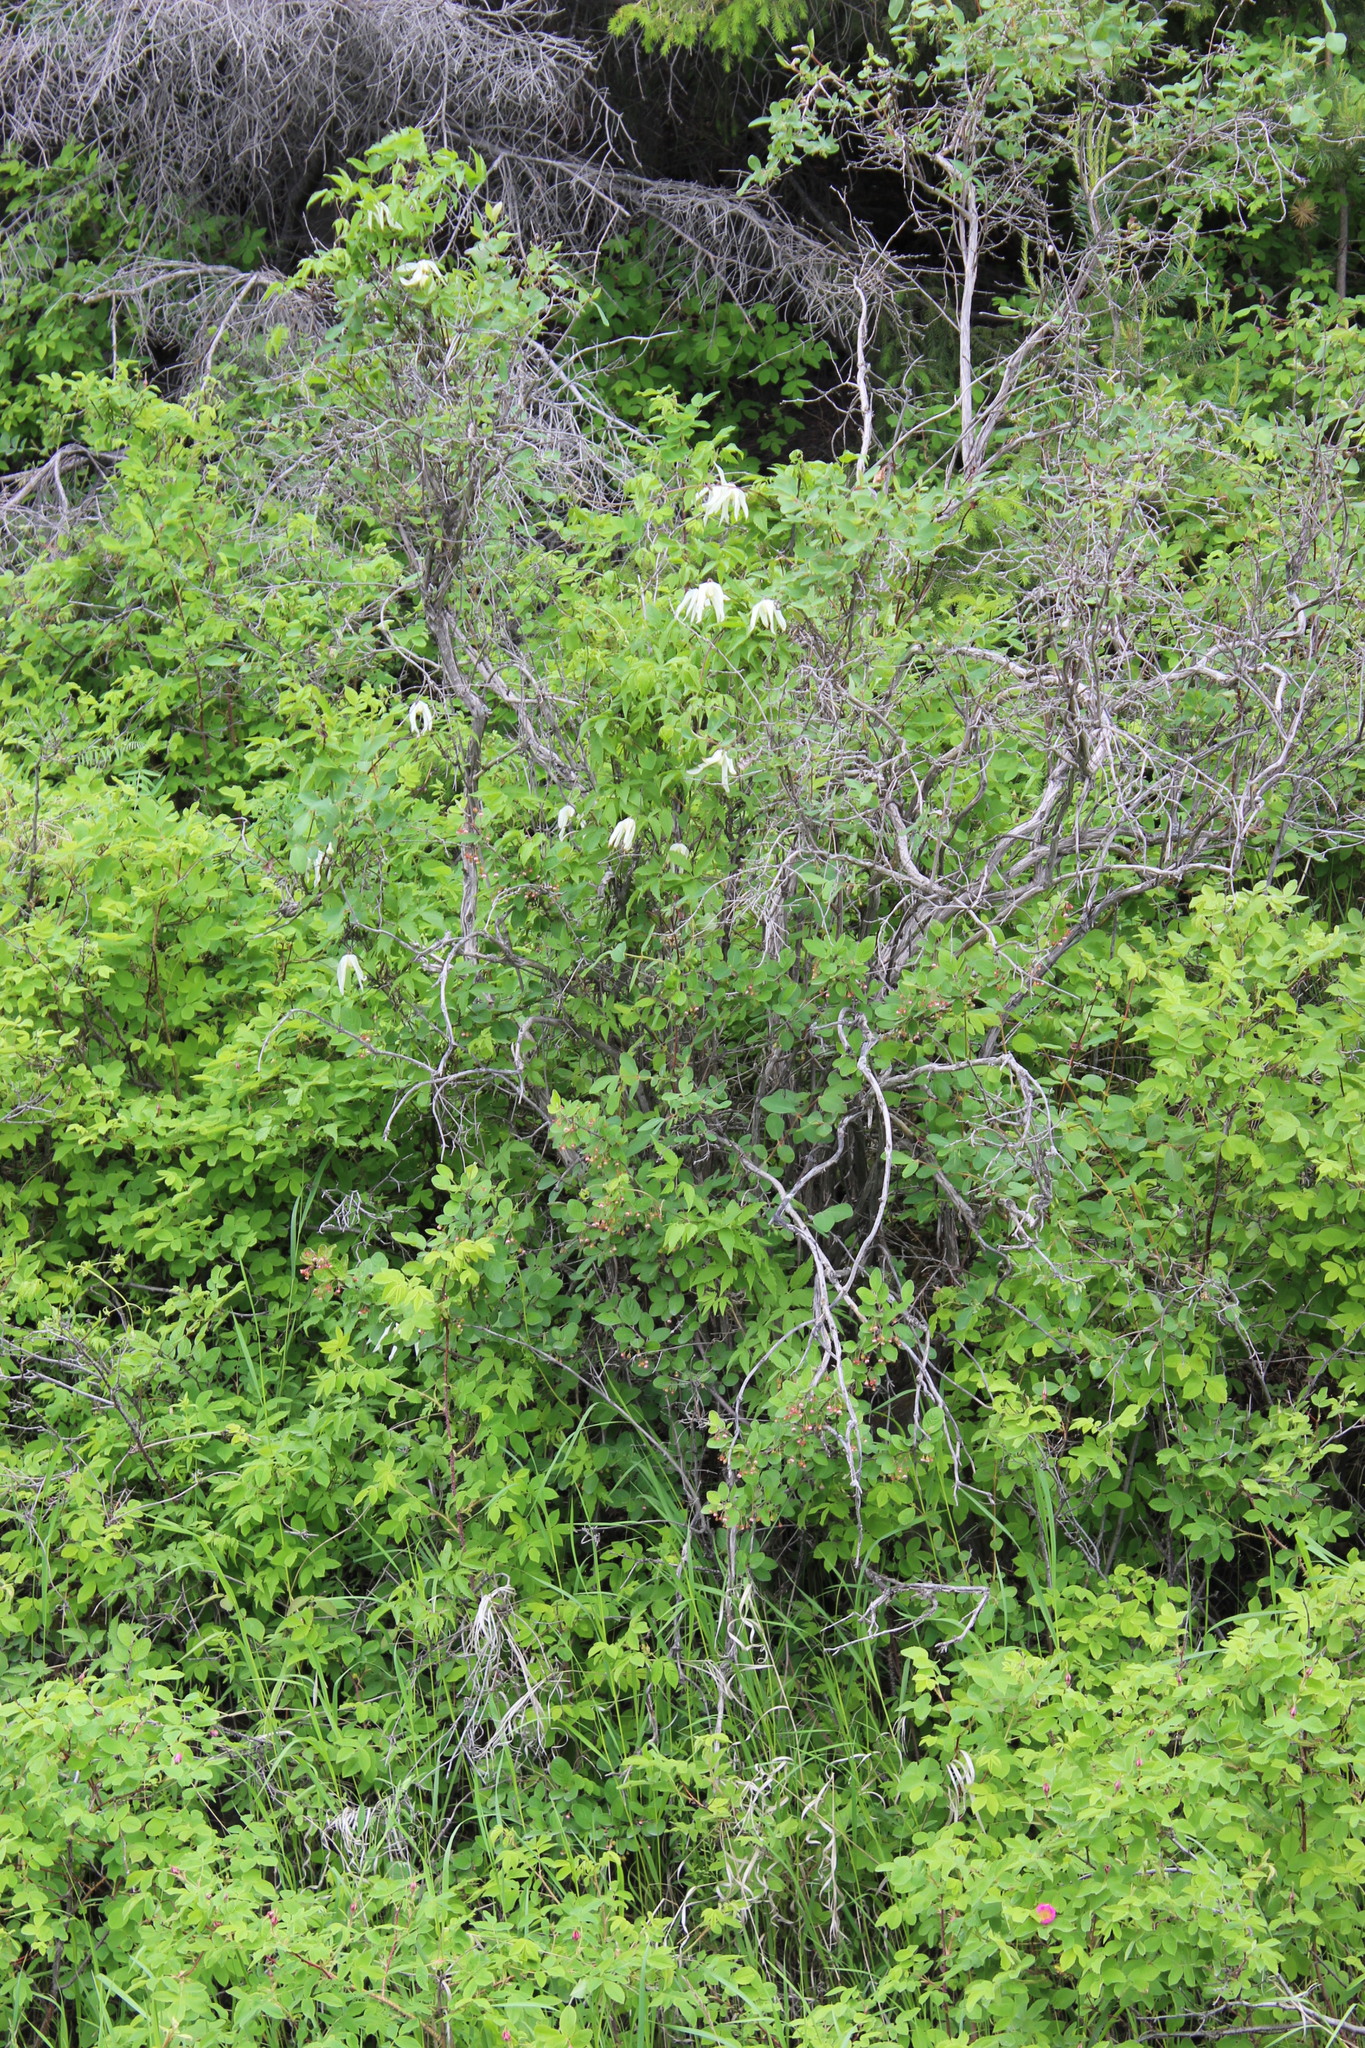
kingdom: Plantae
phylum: Tracheophyta
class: Magnoliopsida
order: Ranunculales
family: Ranunculaceae
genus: Clematis
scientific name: Clematis sibirica
